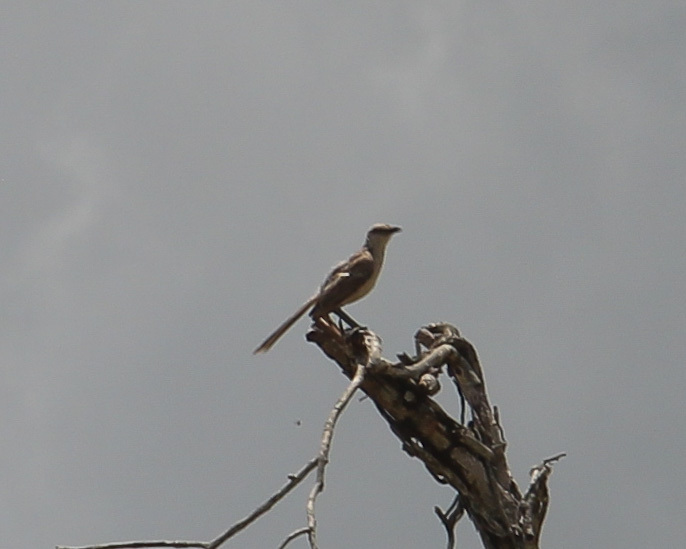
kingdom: Animalia
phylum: Chordata
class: Aves
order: Passeriformes
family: Mimidae
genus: Mimus
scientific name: Mimus saturninus
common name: Chalk-browed mockingbird
